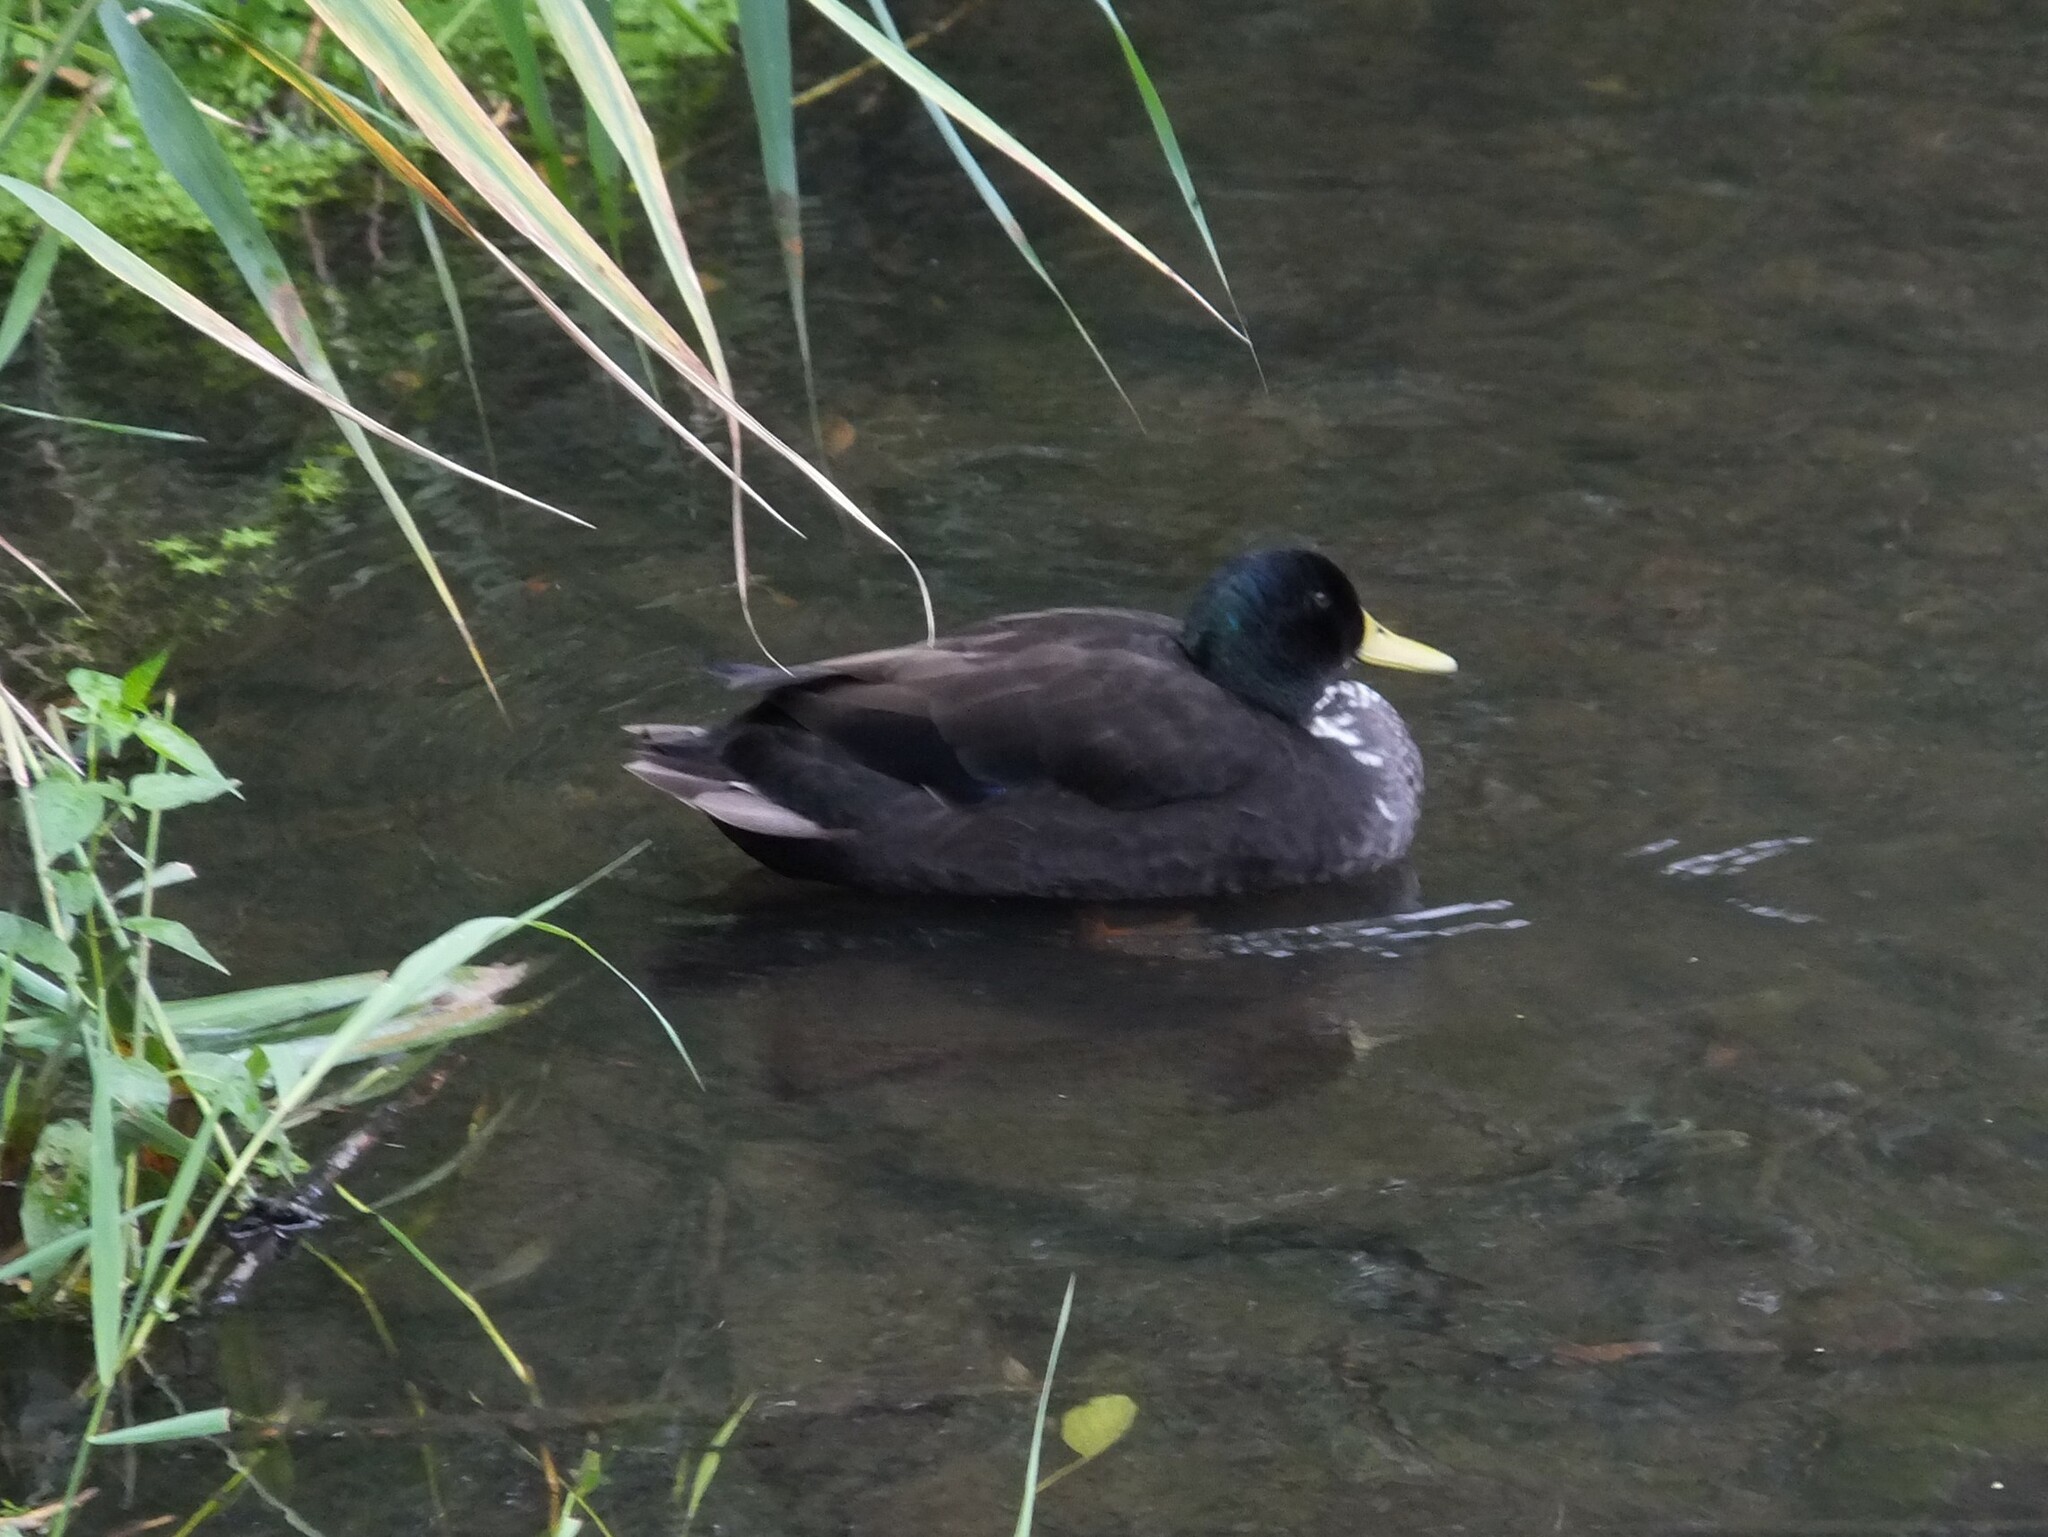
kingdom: Animalia
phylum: Chordata
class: Aves
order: Anseriformes
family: Anatidae
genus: Anas
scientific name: Anas platyrhynchos
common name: Mallard
